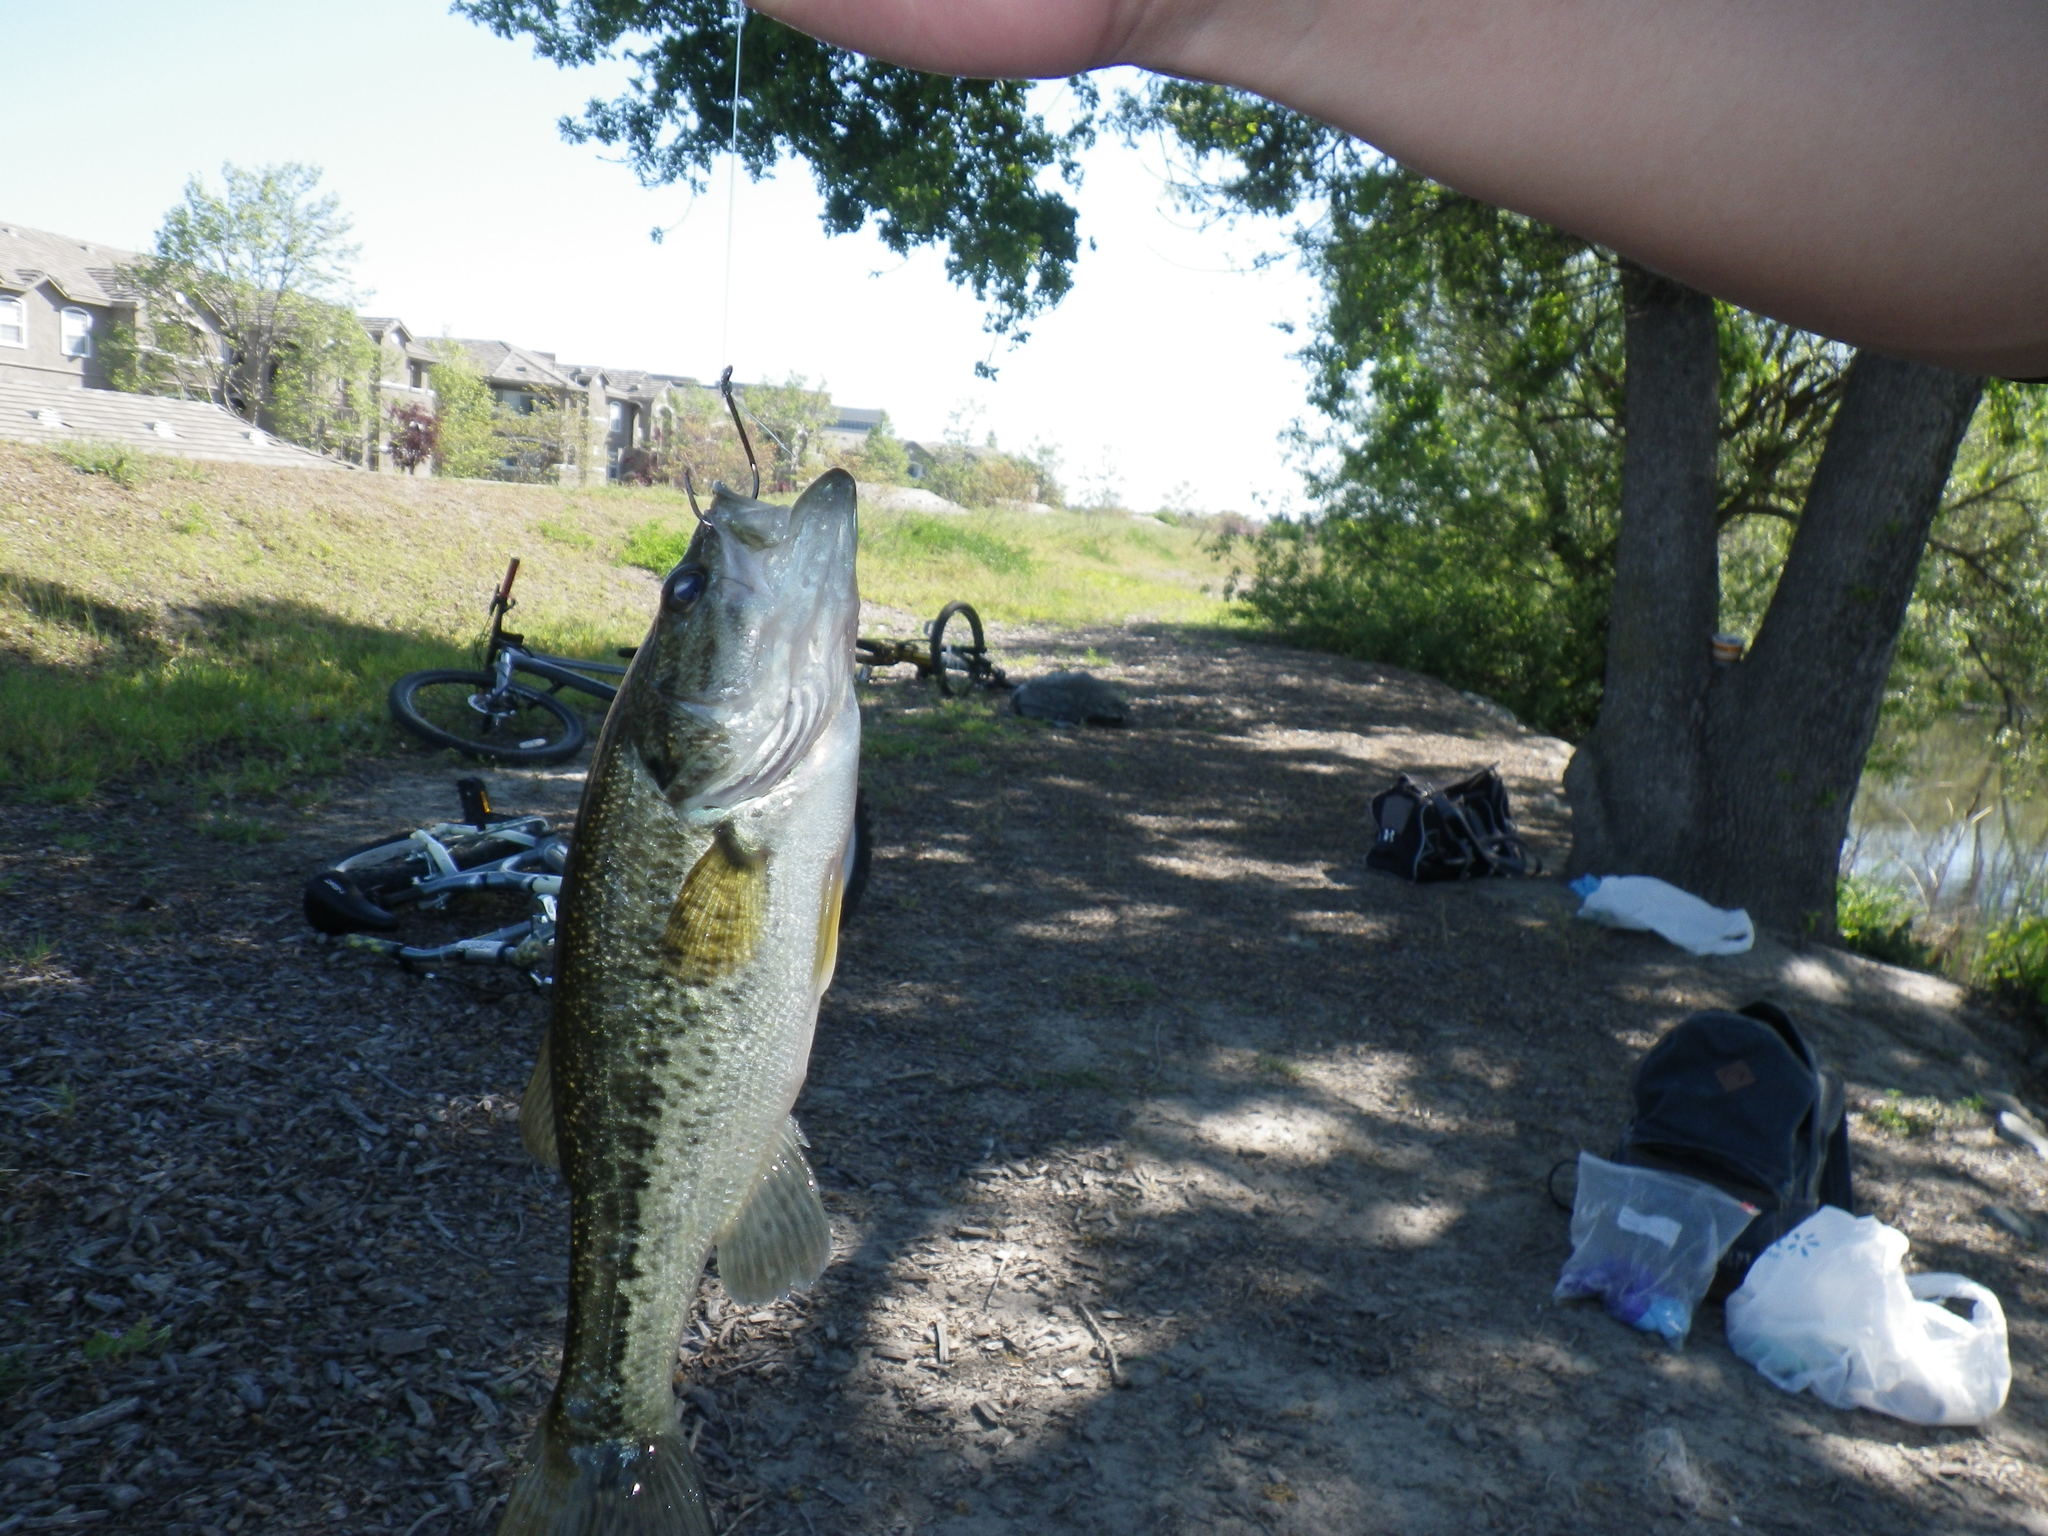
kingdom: Animalia
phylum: Chordata
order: Perciformes
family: Centrarchidae
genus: Micropterus
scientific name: Micropterus
